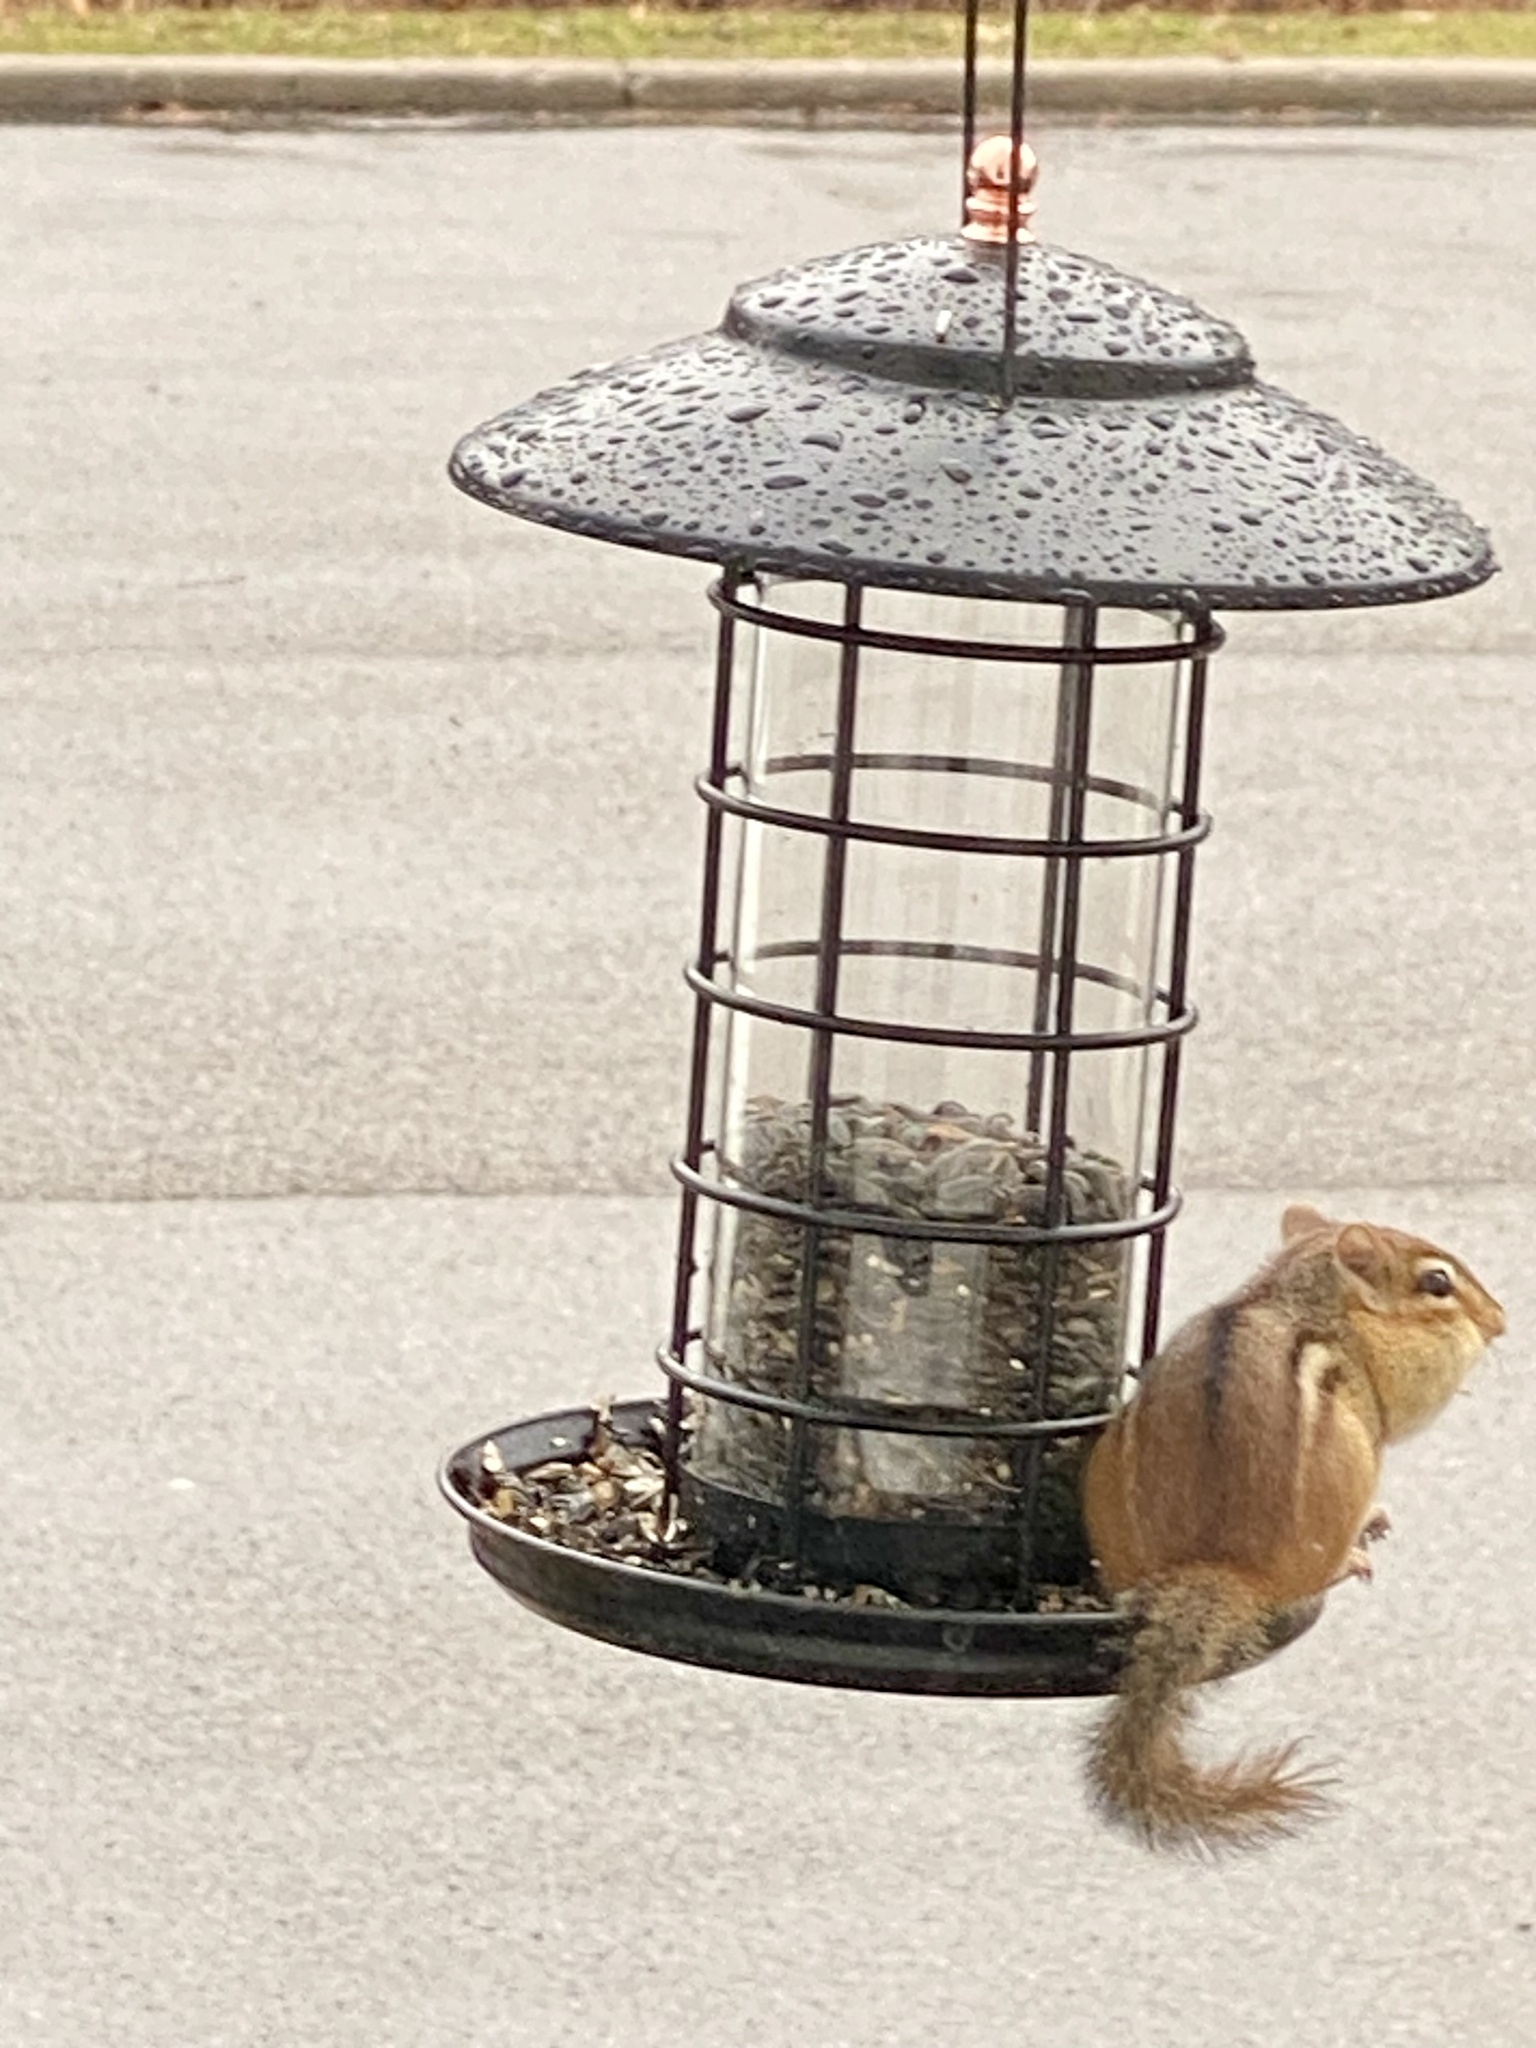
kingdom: Animalia
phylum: Chordata
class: Mammalia
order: Rodentia
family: Sciuridae
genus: Tamias
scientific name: Tamias striatus
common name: Eastern chipmunk
